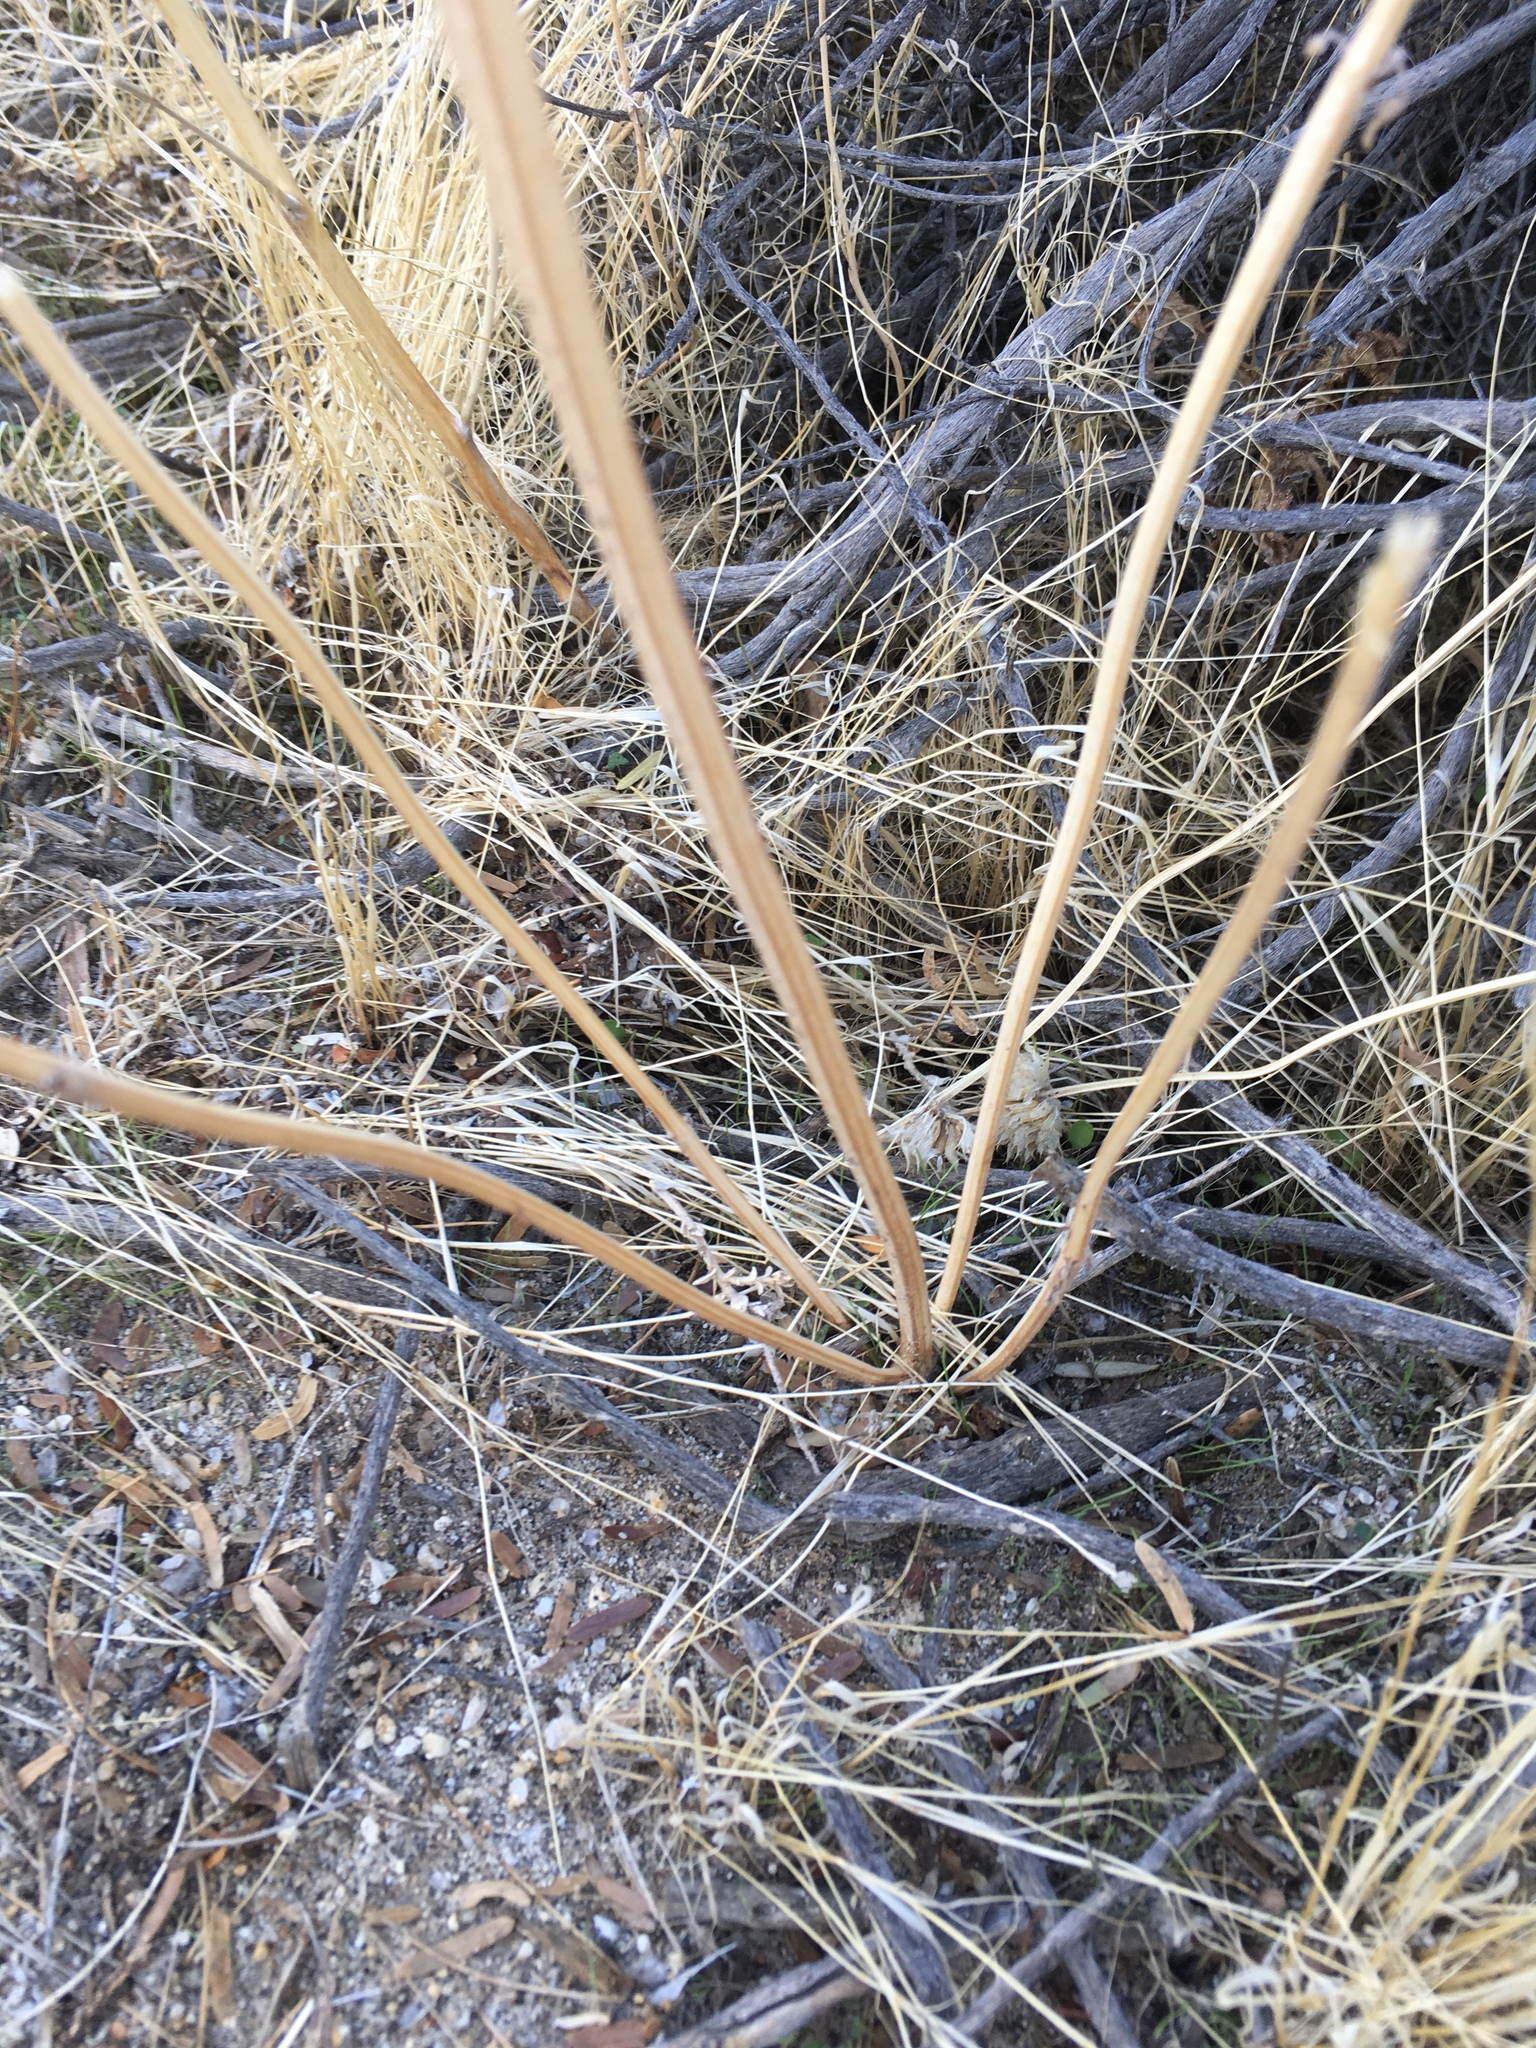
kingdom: Plantae
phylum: Tracheophyta
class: Magnoliopsida
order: Lamiales
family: Lamiaceae
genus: Salvia
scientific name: Salvia columbariae
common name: Chia
